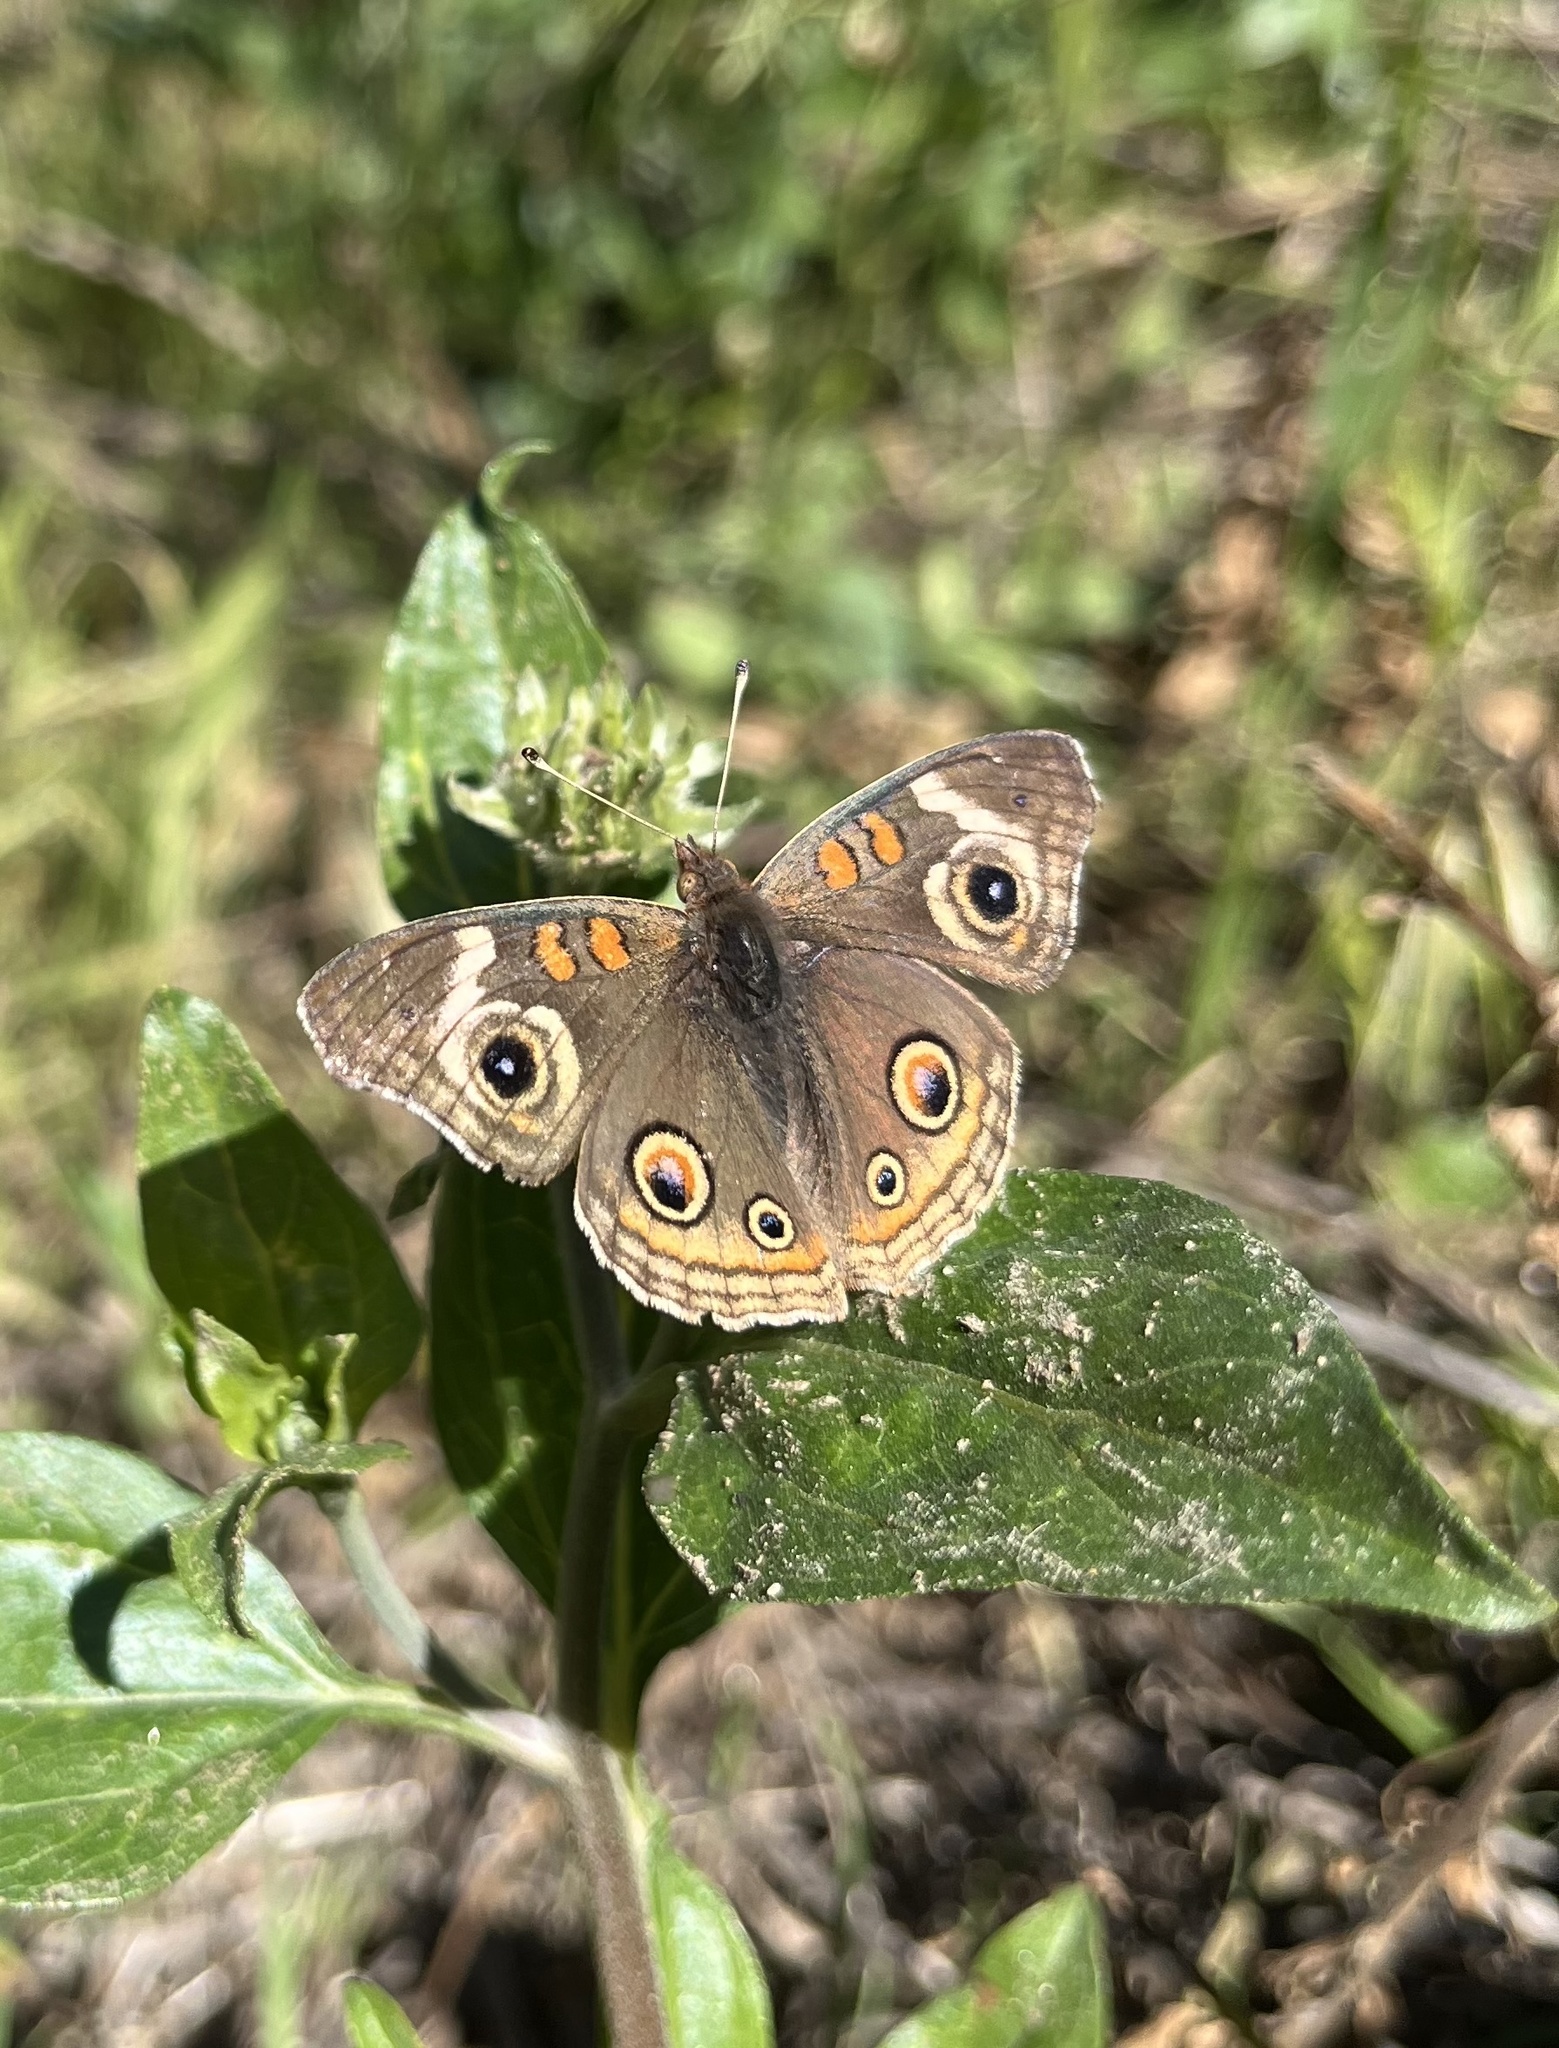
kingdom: Animalia
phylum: Arthropoda
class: Insecta
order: Lepidoptera
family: Nymphalidae
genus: Junonia
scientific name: Junonia grisea
